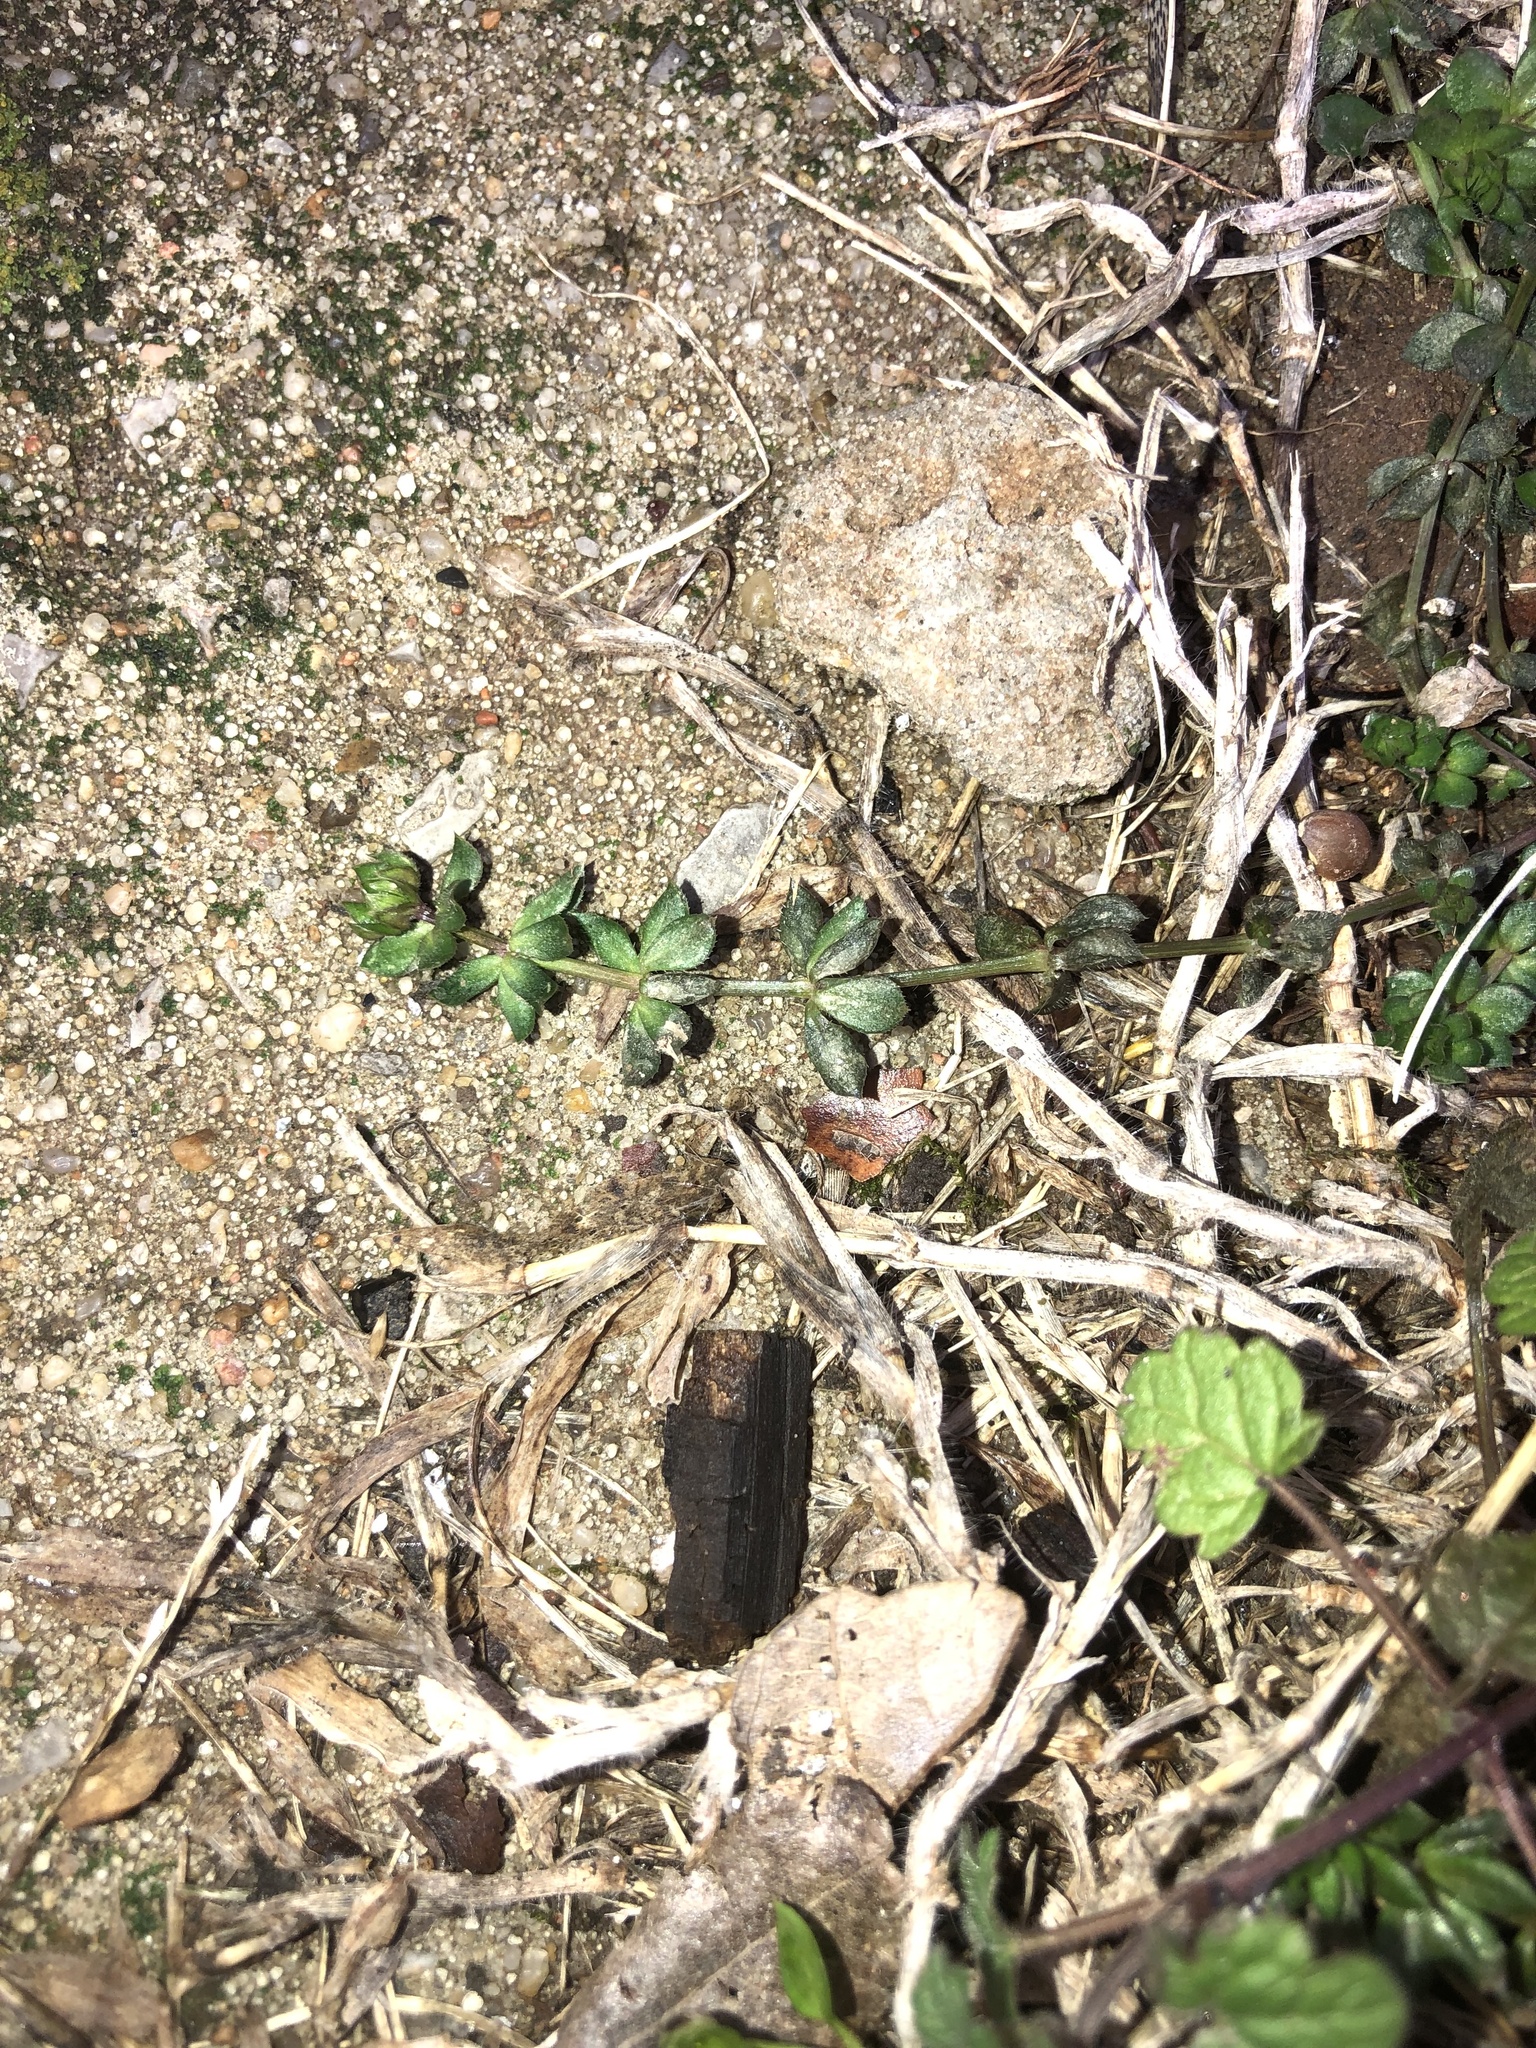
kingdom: Plantae
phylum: Tracheophyta
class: Magnoliopsida
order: Gentianales
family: Rubiaceae
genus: Sherardia
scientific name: Sherardia arvensis
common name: Field madder
